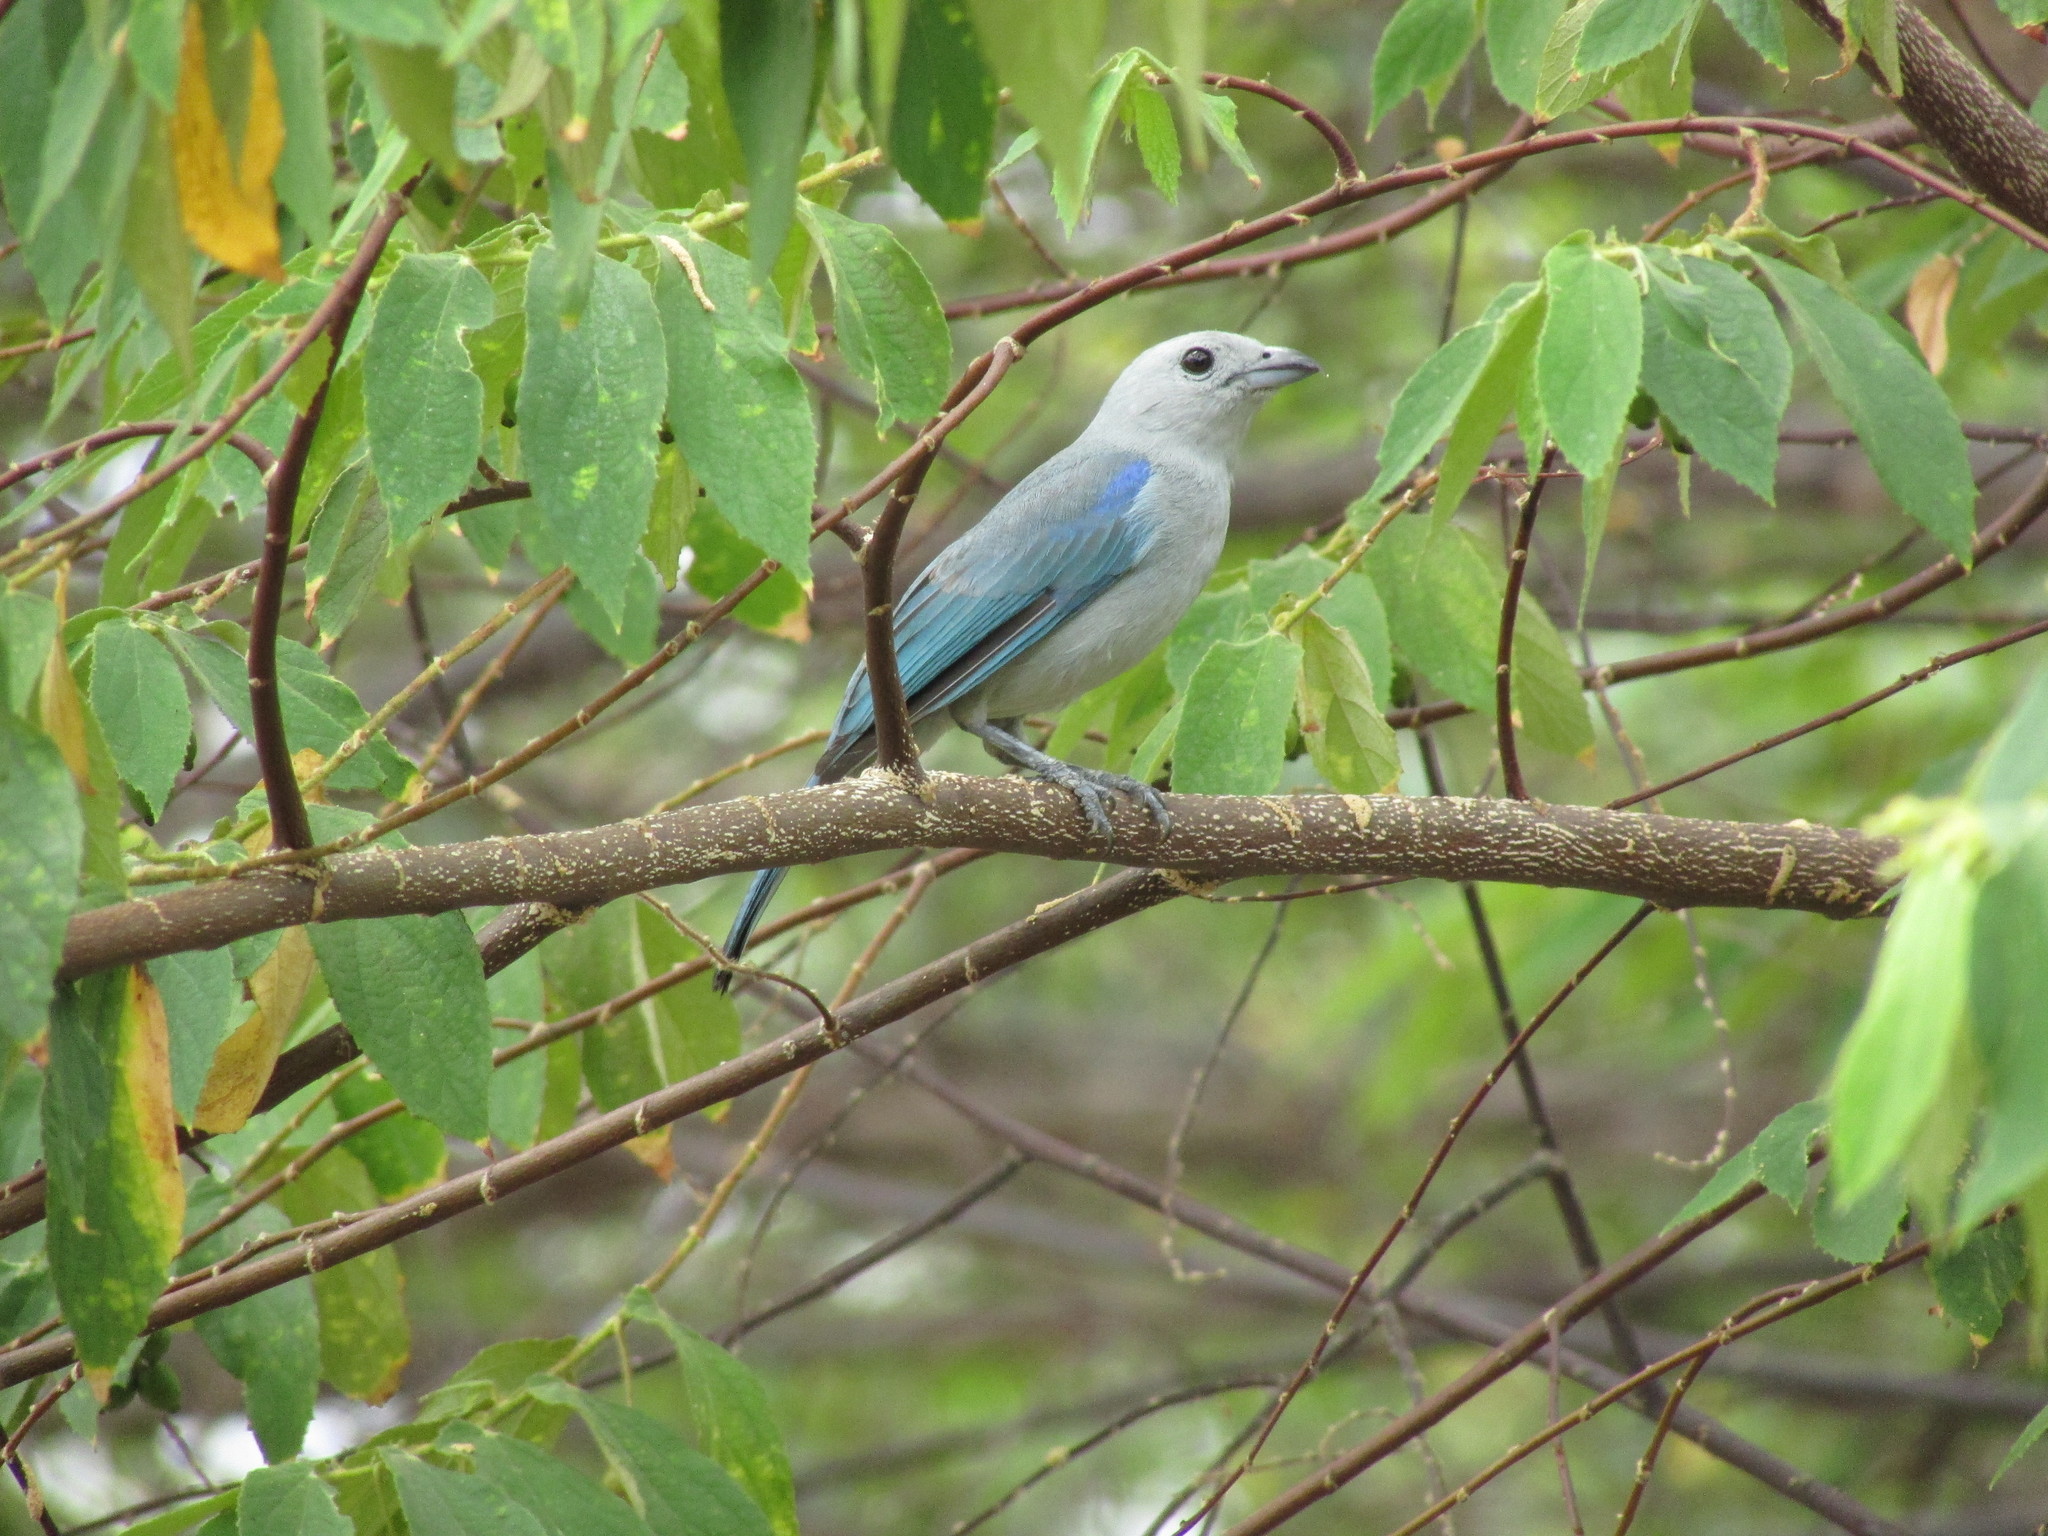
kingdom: Animalia
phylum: Chordata
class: Aves
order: Passeriformes
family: Thraupidae
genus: Thraupis
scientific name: Thraupis episcopus
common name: Blue-grey tanager
